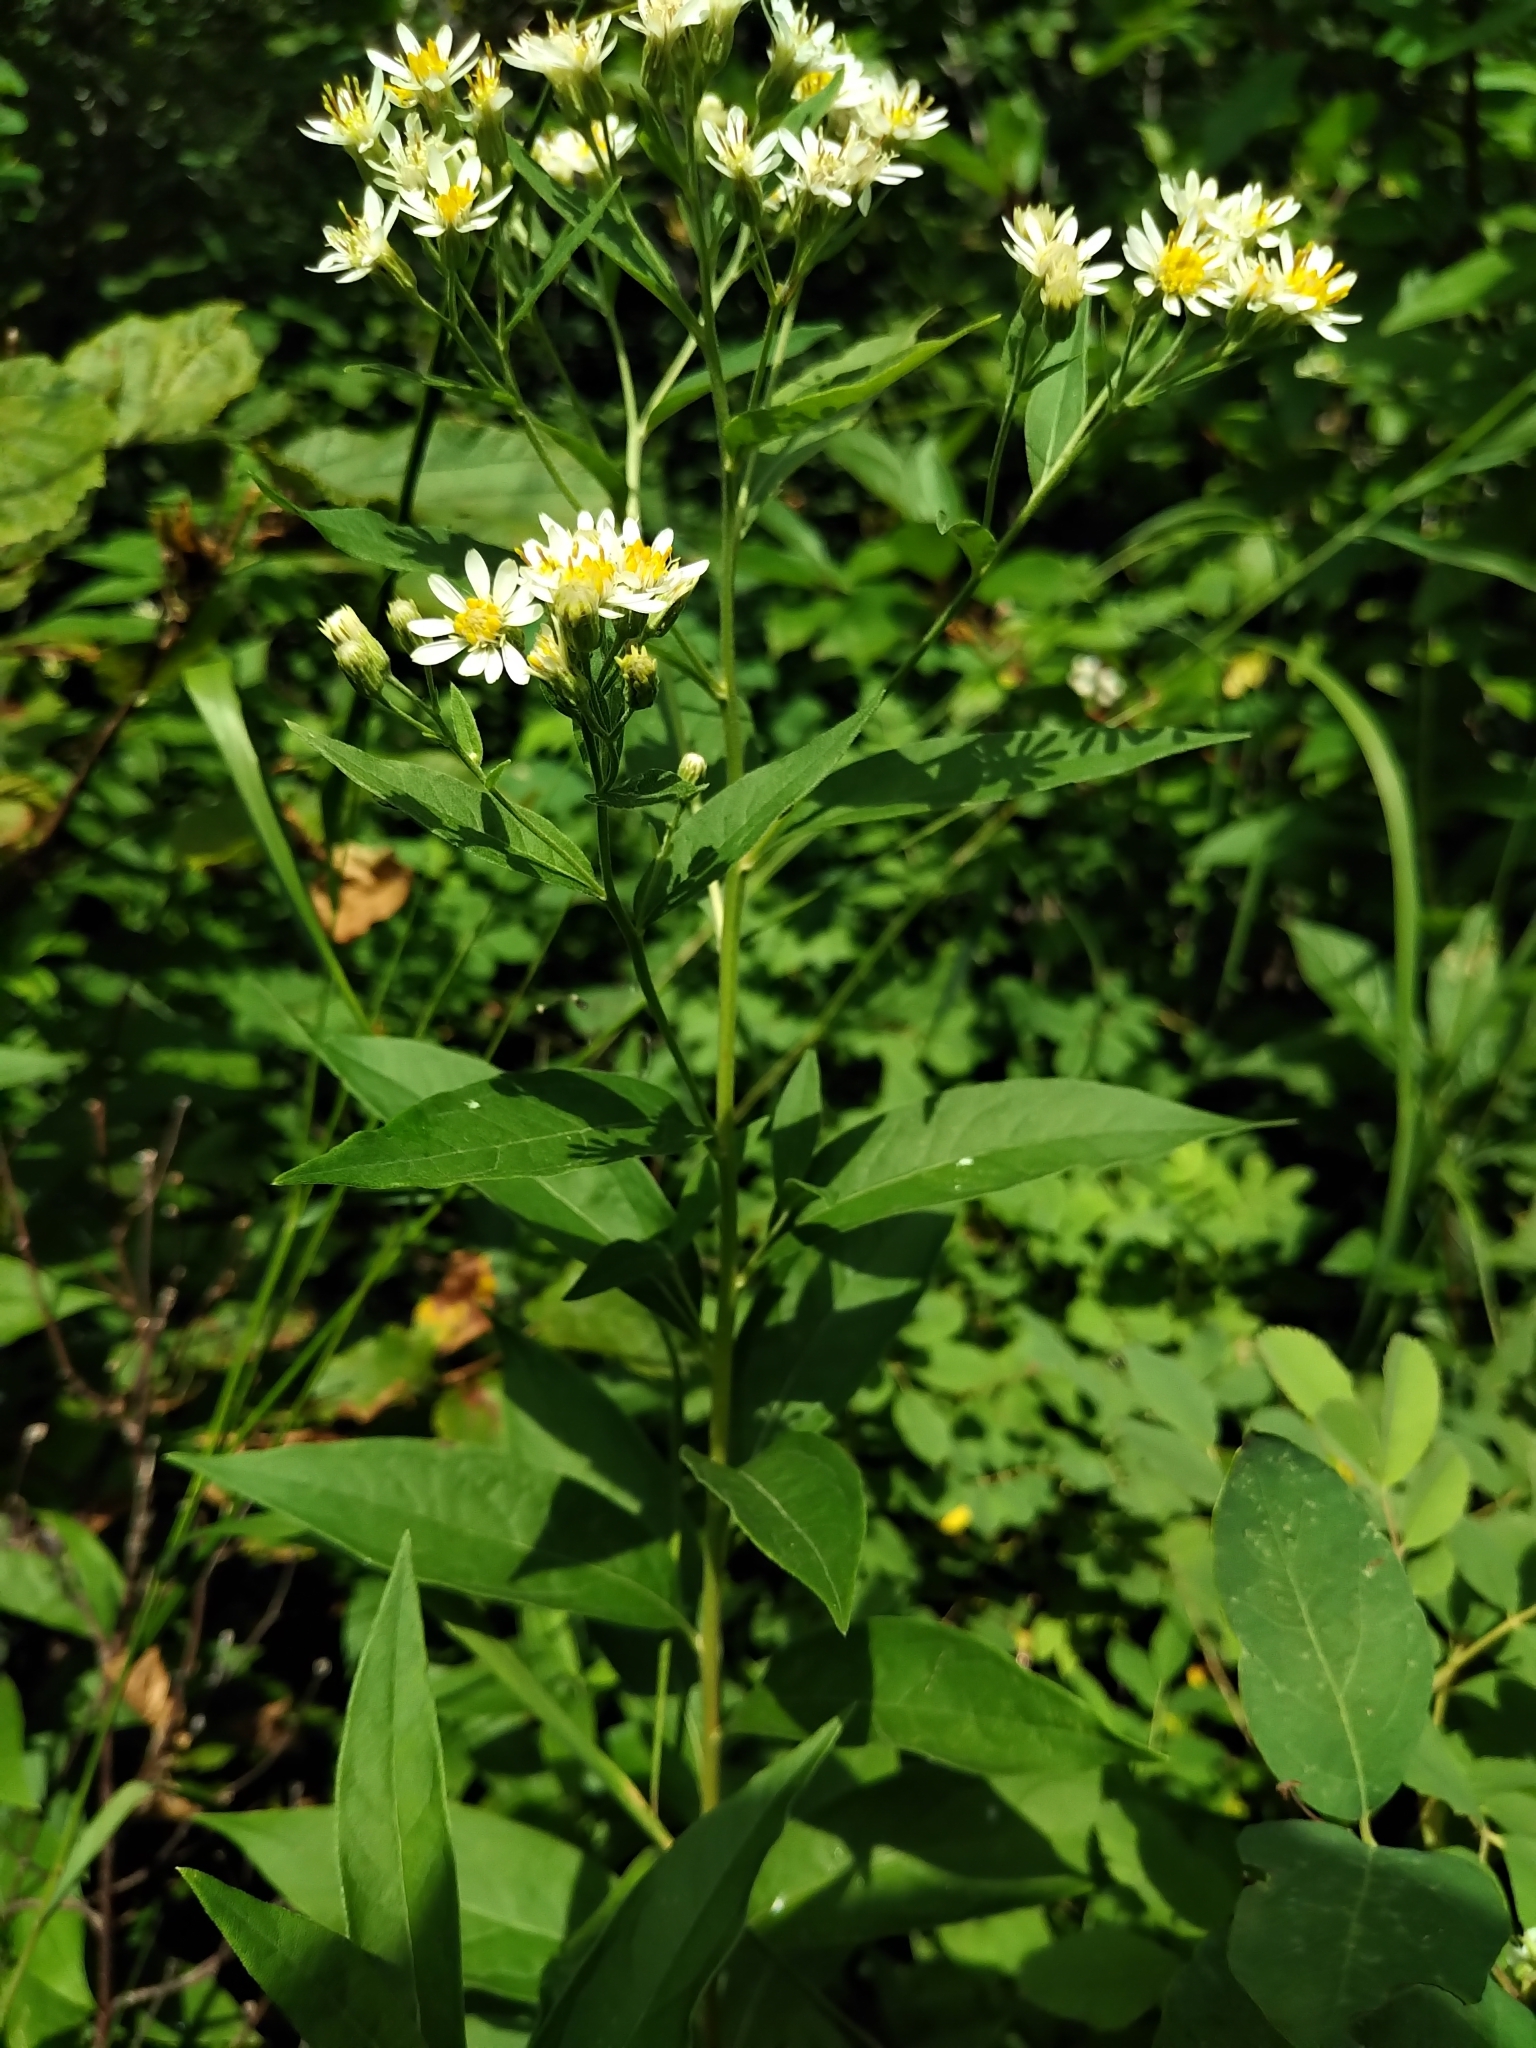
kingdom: Plantae
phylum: Tracheophyta
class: Magnoliopsida
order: Asterales
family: Asteraceae
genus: Doellingeria
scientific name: Doellingeria umbellata
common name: Flat-top white aster
